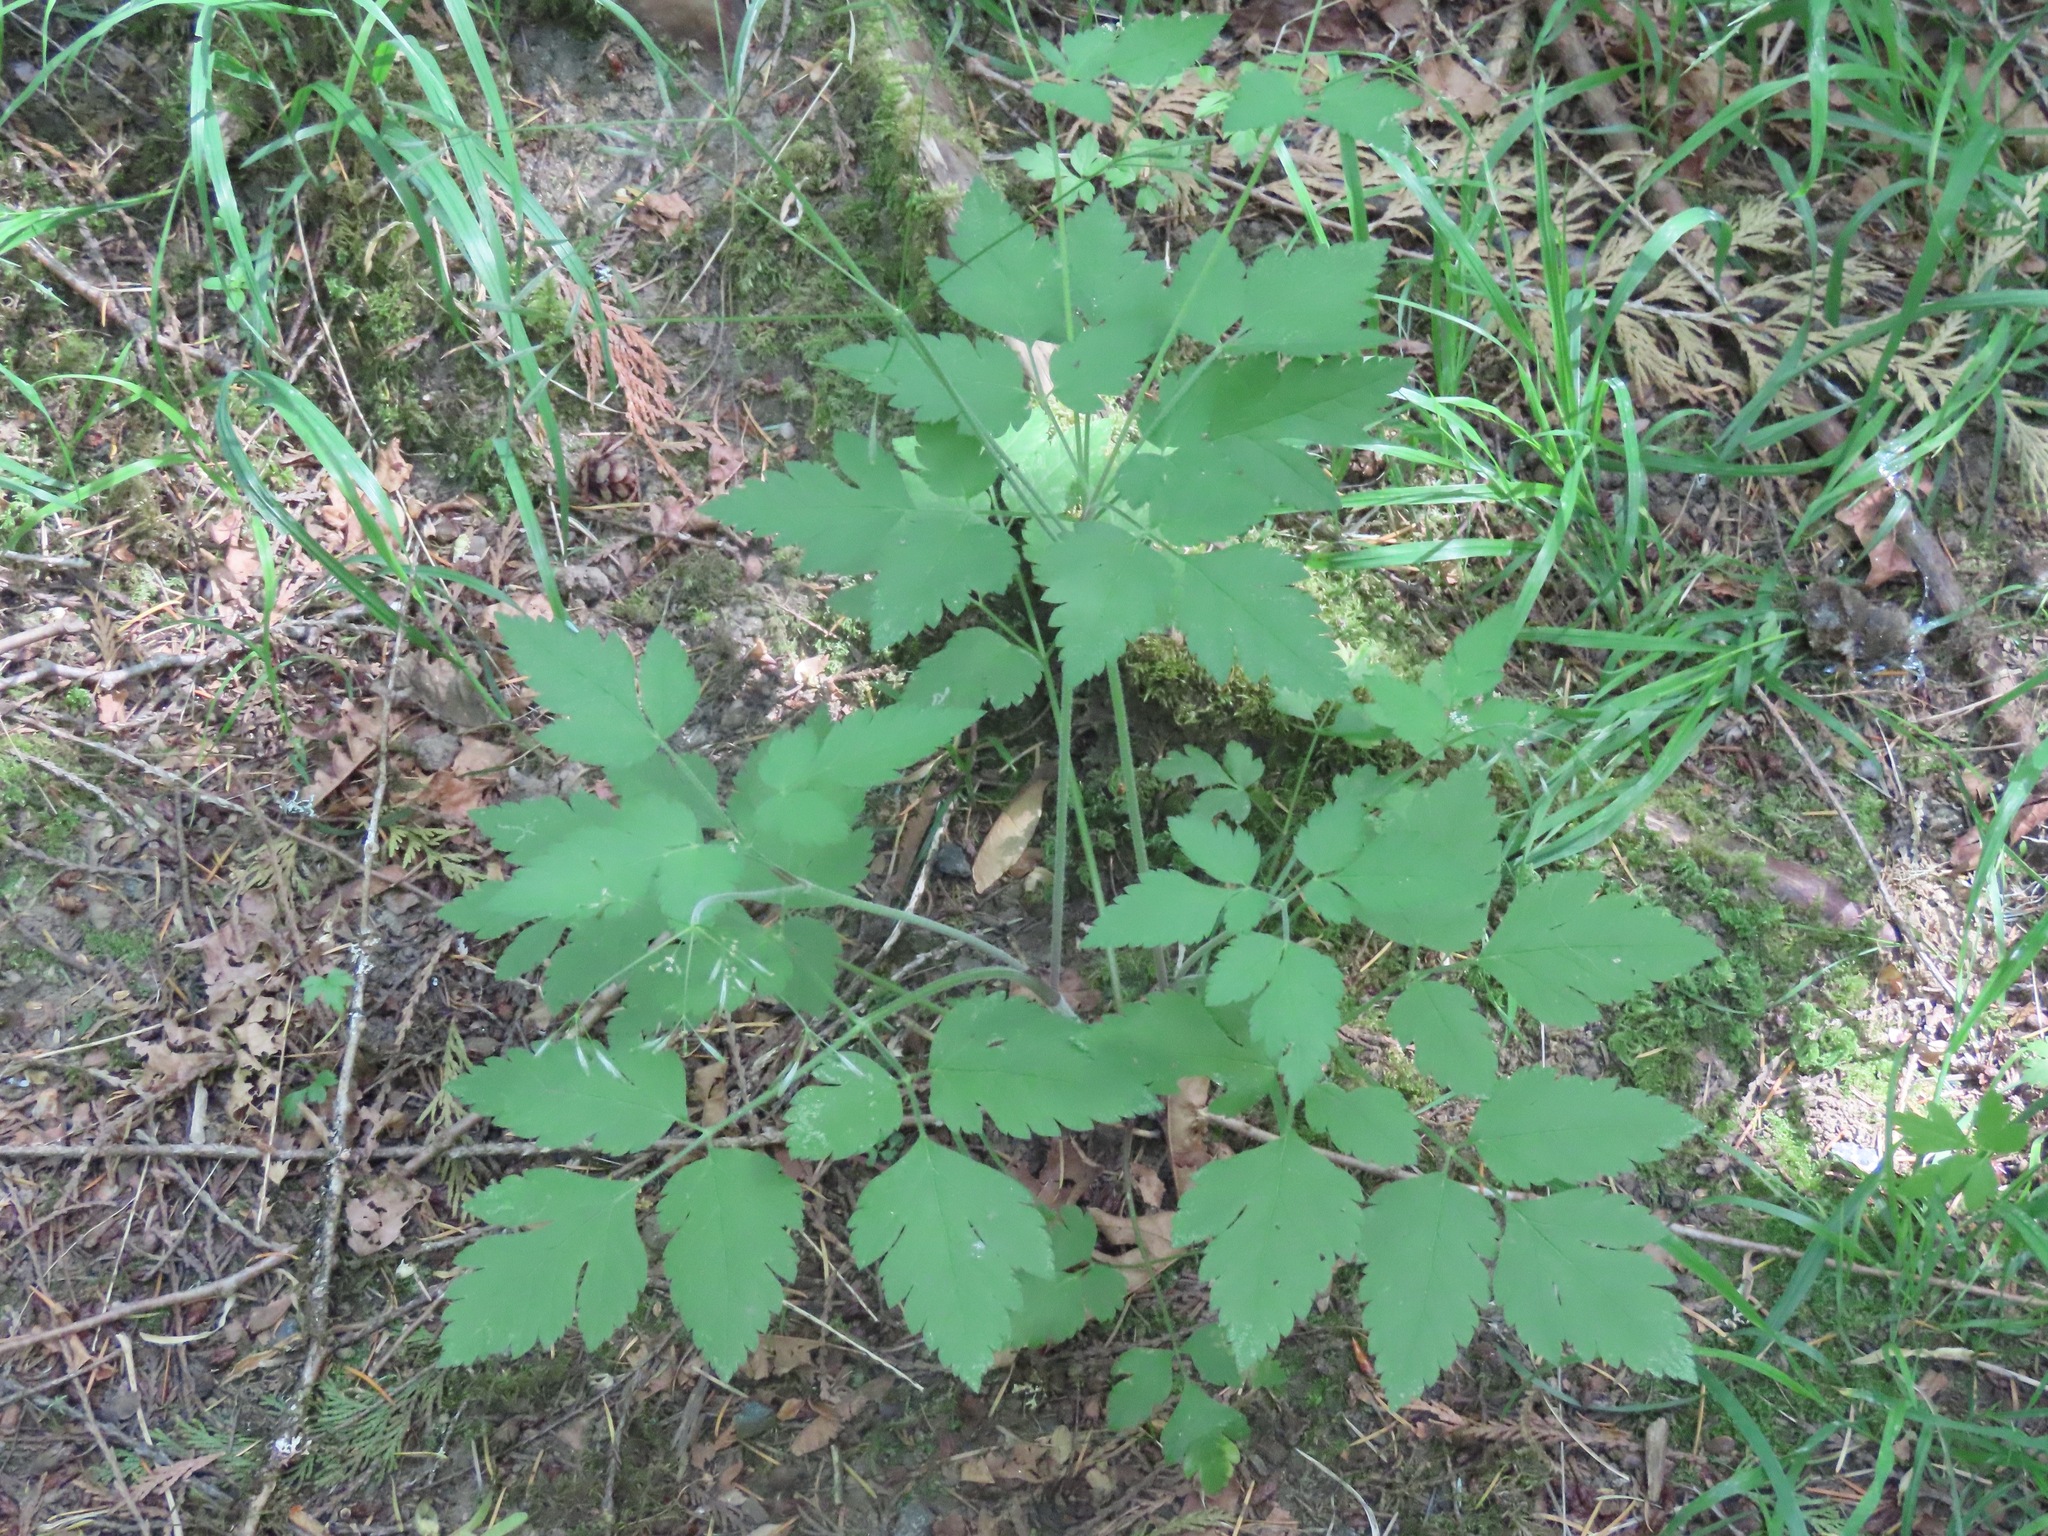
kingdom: Plantae
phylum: Tracheophyta
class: Magnoliopsida
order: Apiales
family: Apiaceae
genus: Osmorhiza
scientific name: Osmorhiza berteroi
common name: Mountain sweet cicely
